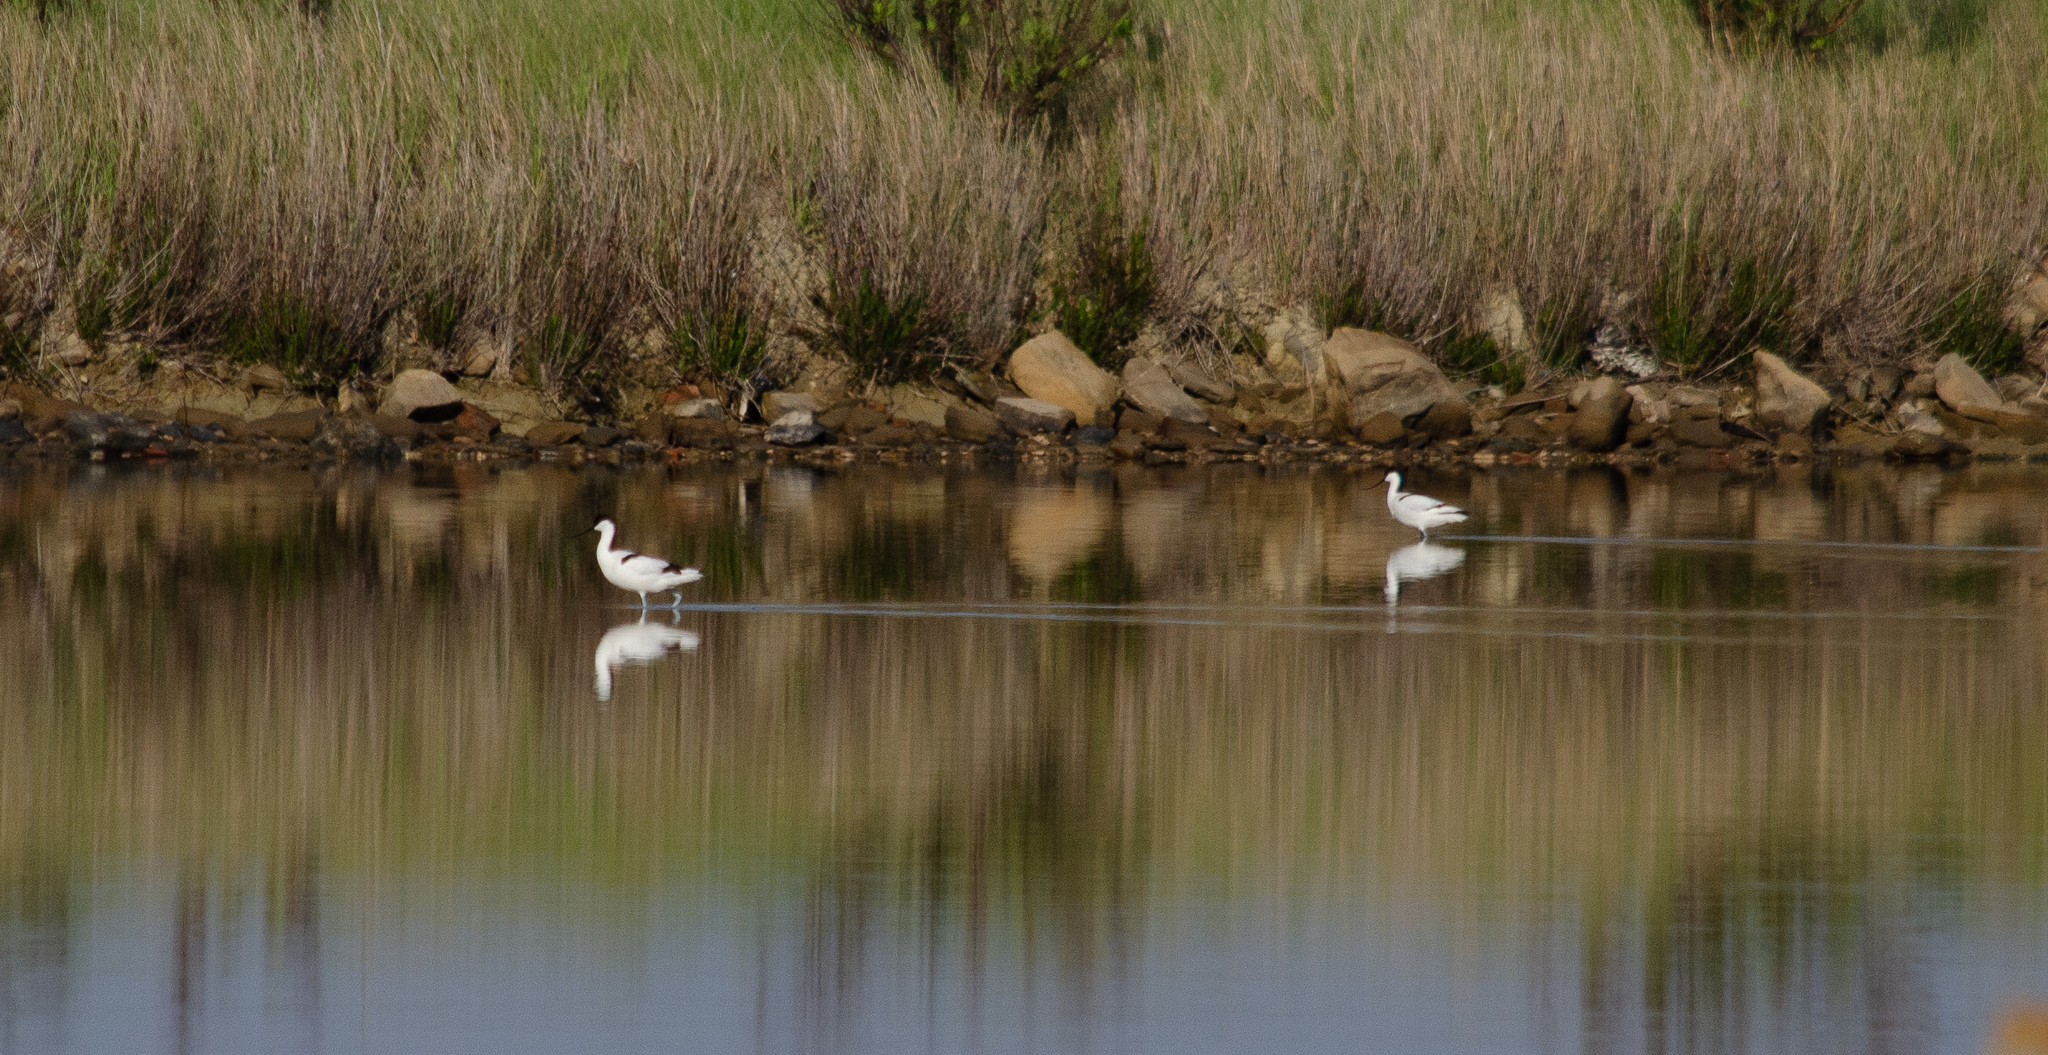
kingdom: Animalia
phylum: Chordata
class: Aves
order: Charadriiformes
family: Recurvirostridae
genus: Recurvirostra
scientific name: Recurvirostra avosetta
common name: Pied avocet
